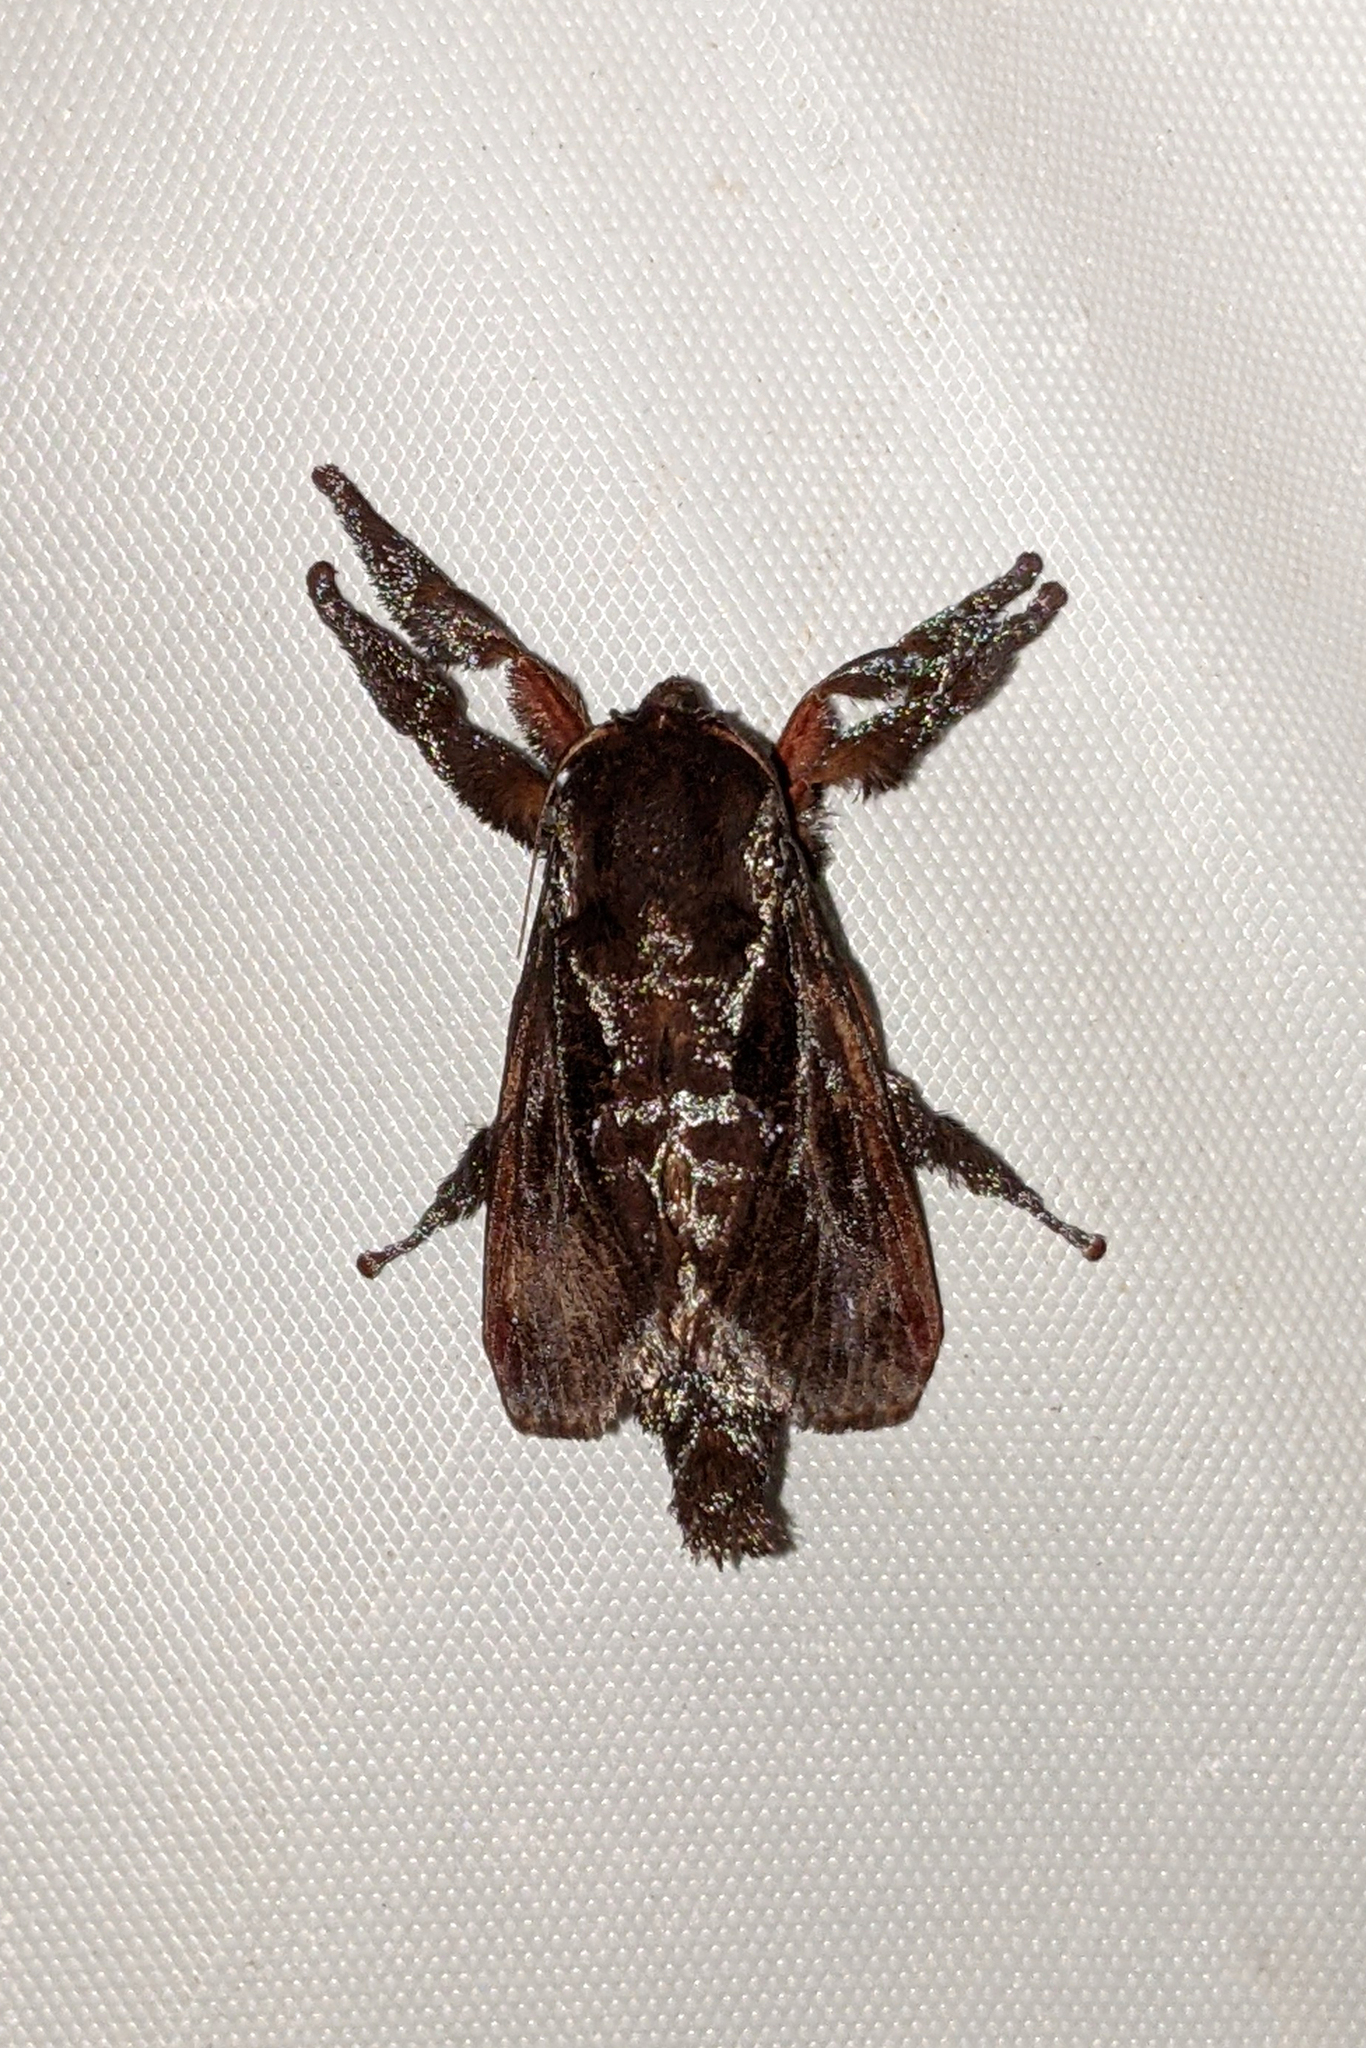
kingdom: Animalia
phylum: Arthropoda
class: Insecta
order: Lepidoptera
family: Limacodidae
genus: Sibine
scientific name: Sibine nesea
